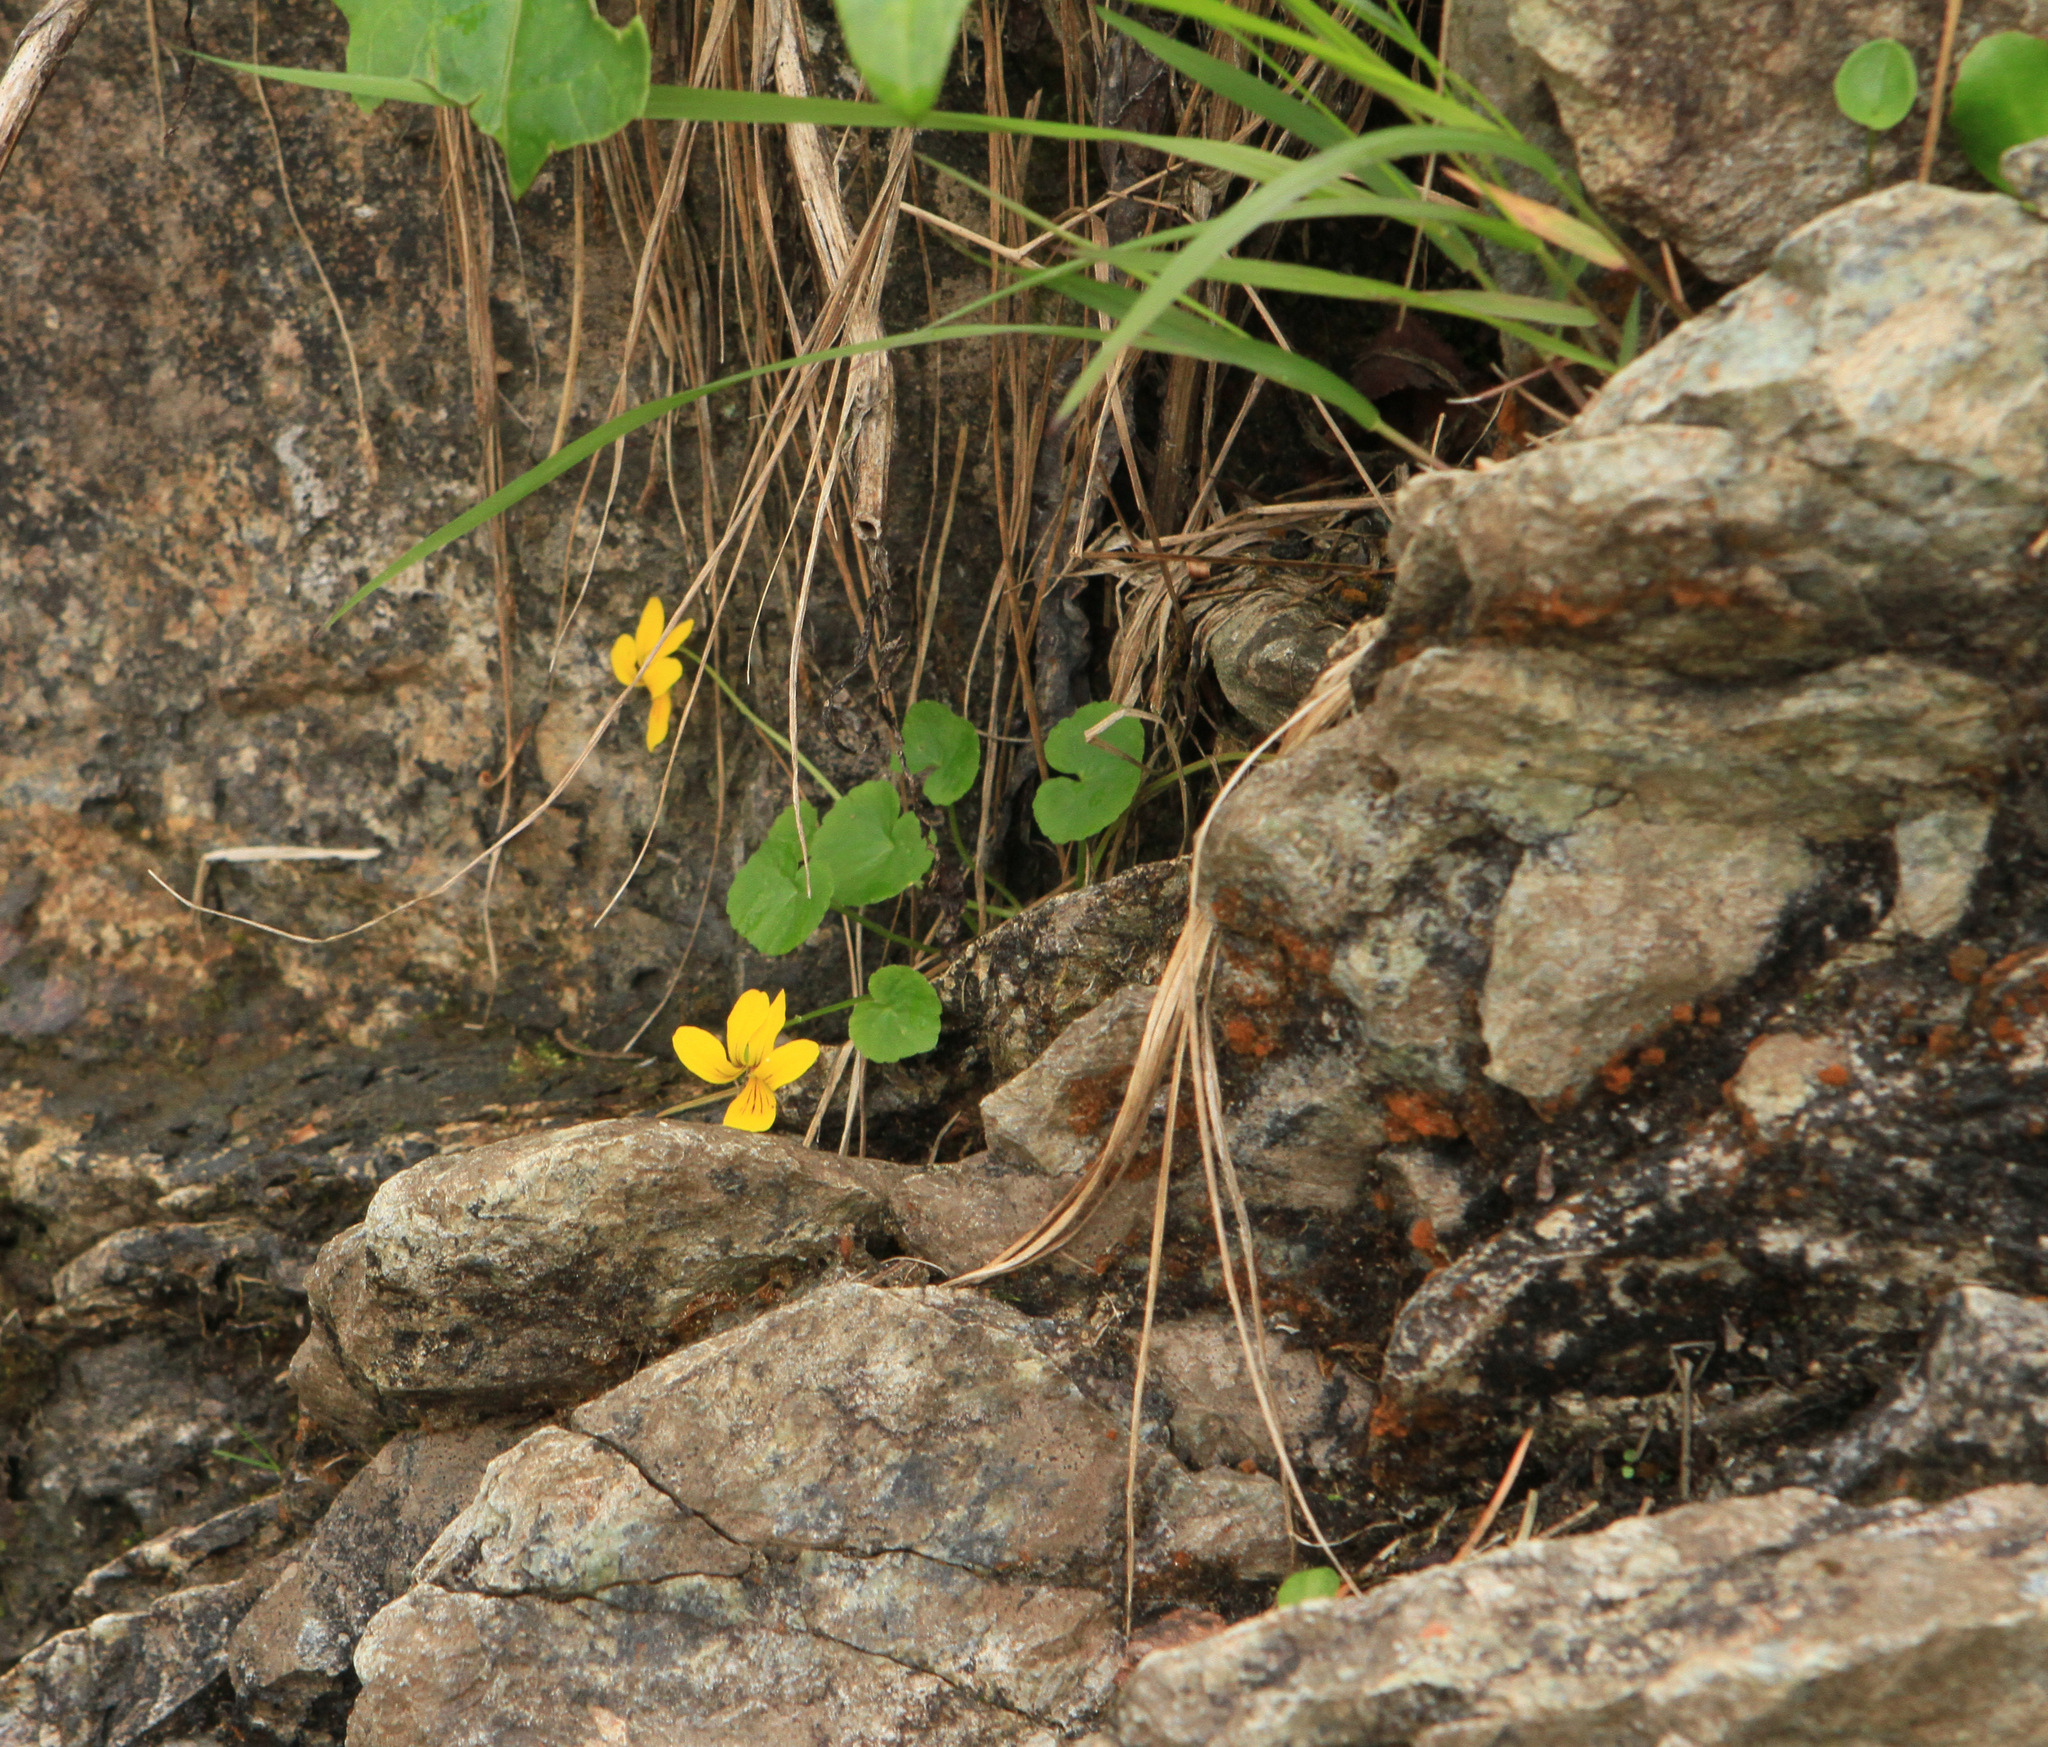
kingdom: Plantae
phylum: Tracheophyta
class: Magnoliopsida
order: Malpighiales
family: Violaceae
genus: Viola
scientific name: Viola biflora
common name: Alpine yellow violet
